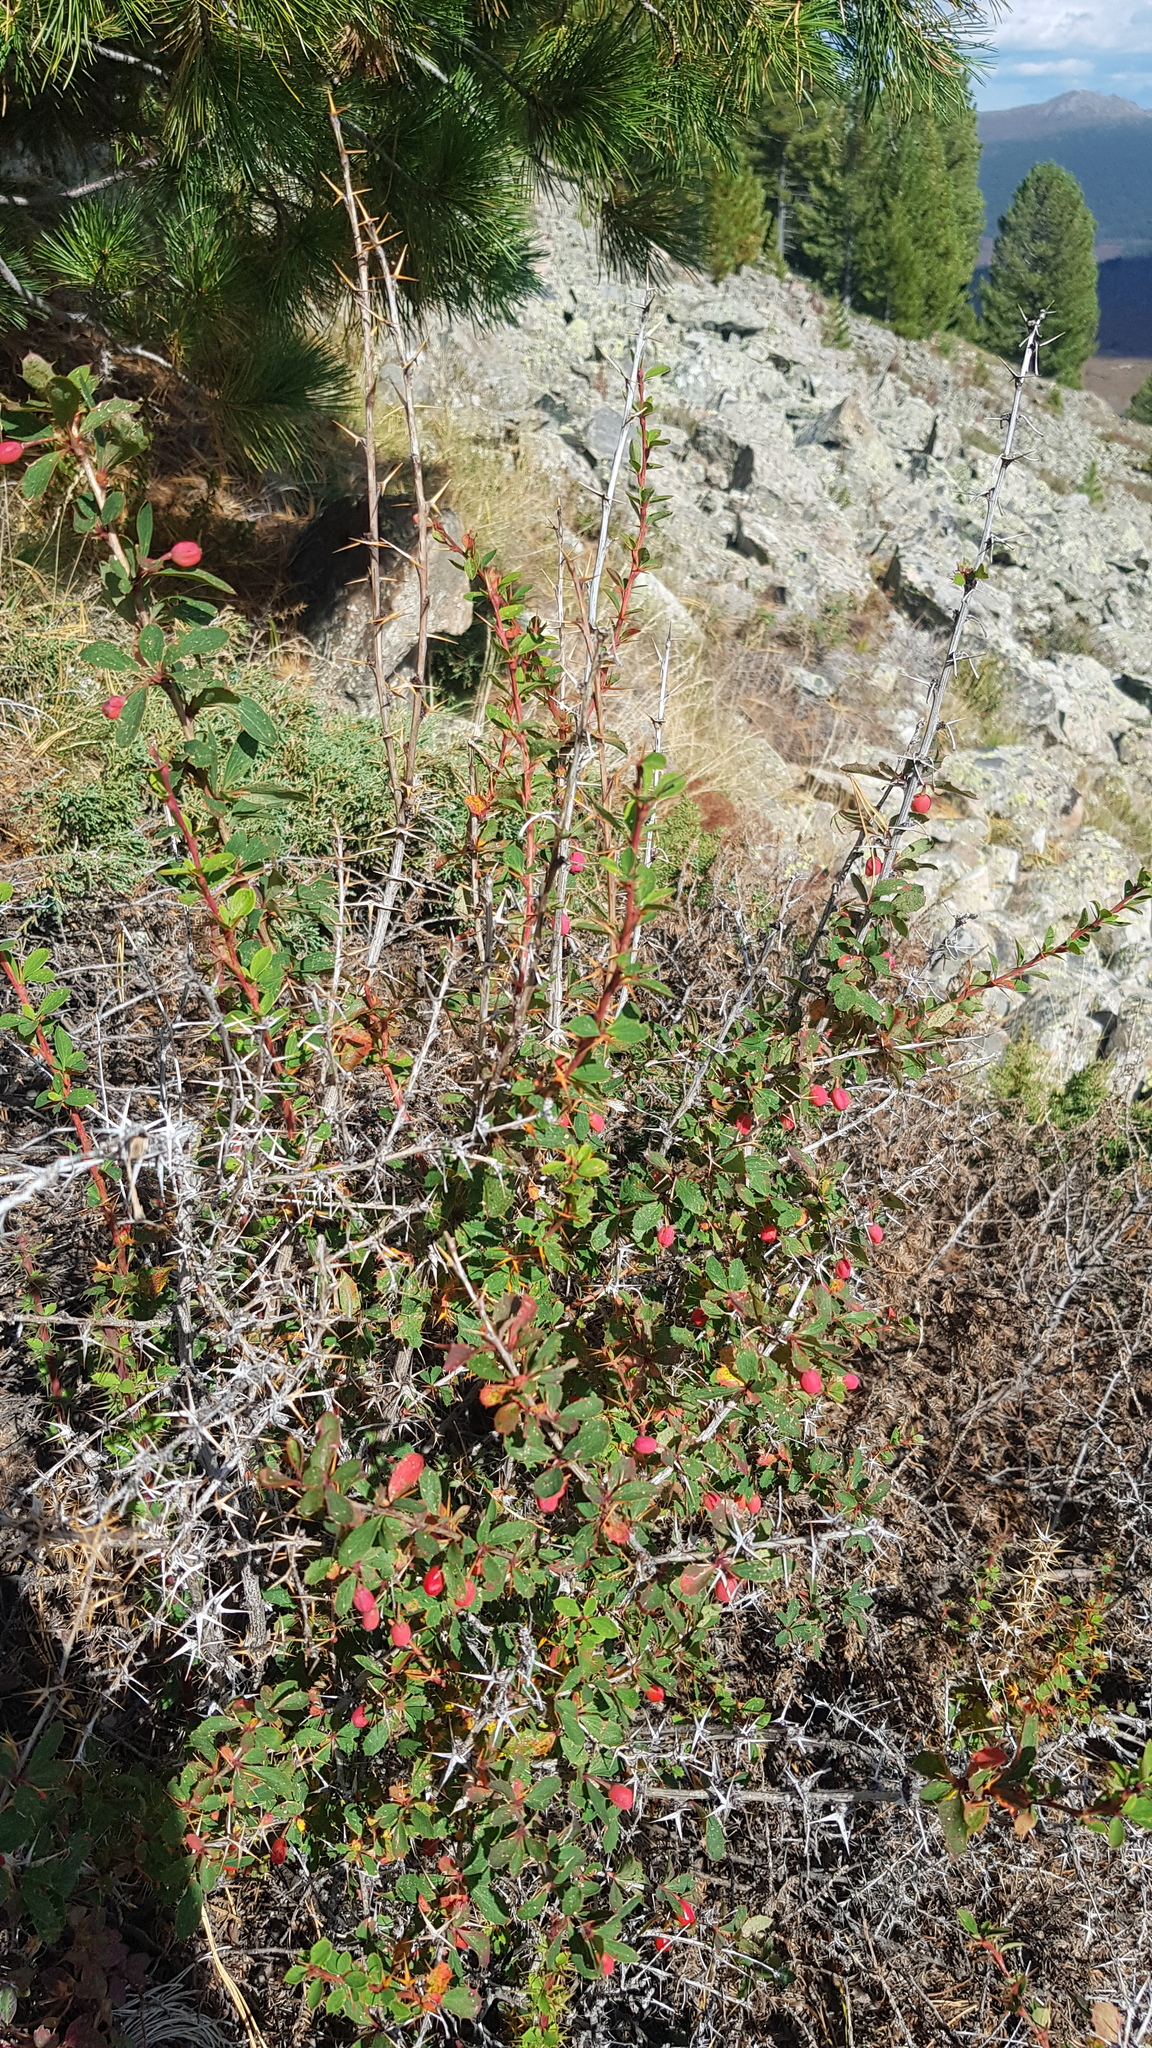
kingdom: Plantae
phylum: Tracheophyta
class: Magnoliopsida
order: Ranunculales
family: Berberidaceae
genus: Berberis
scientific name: Berberis sibirica
